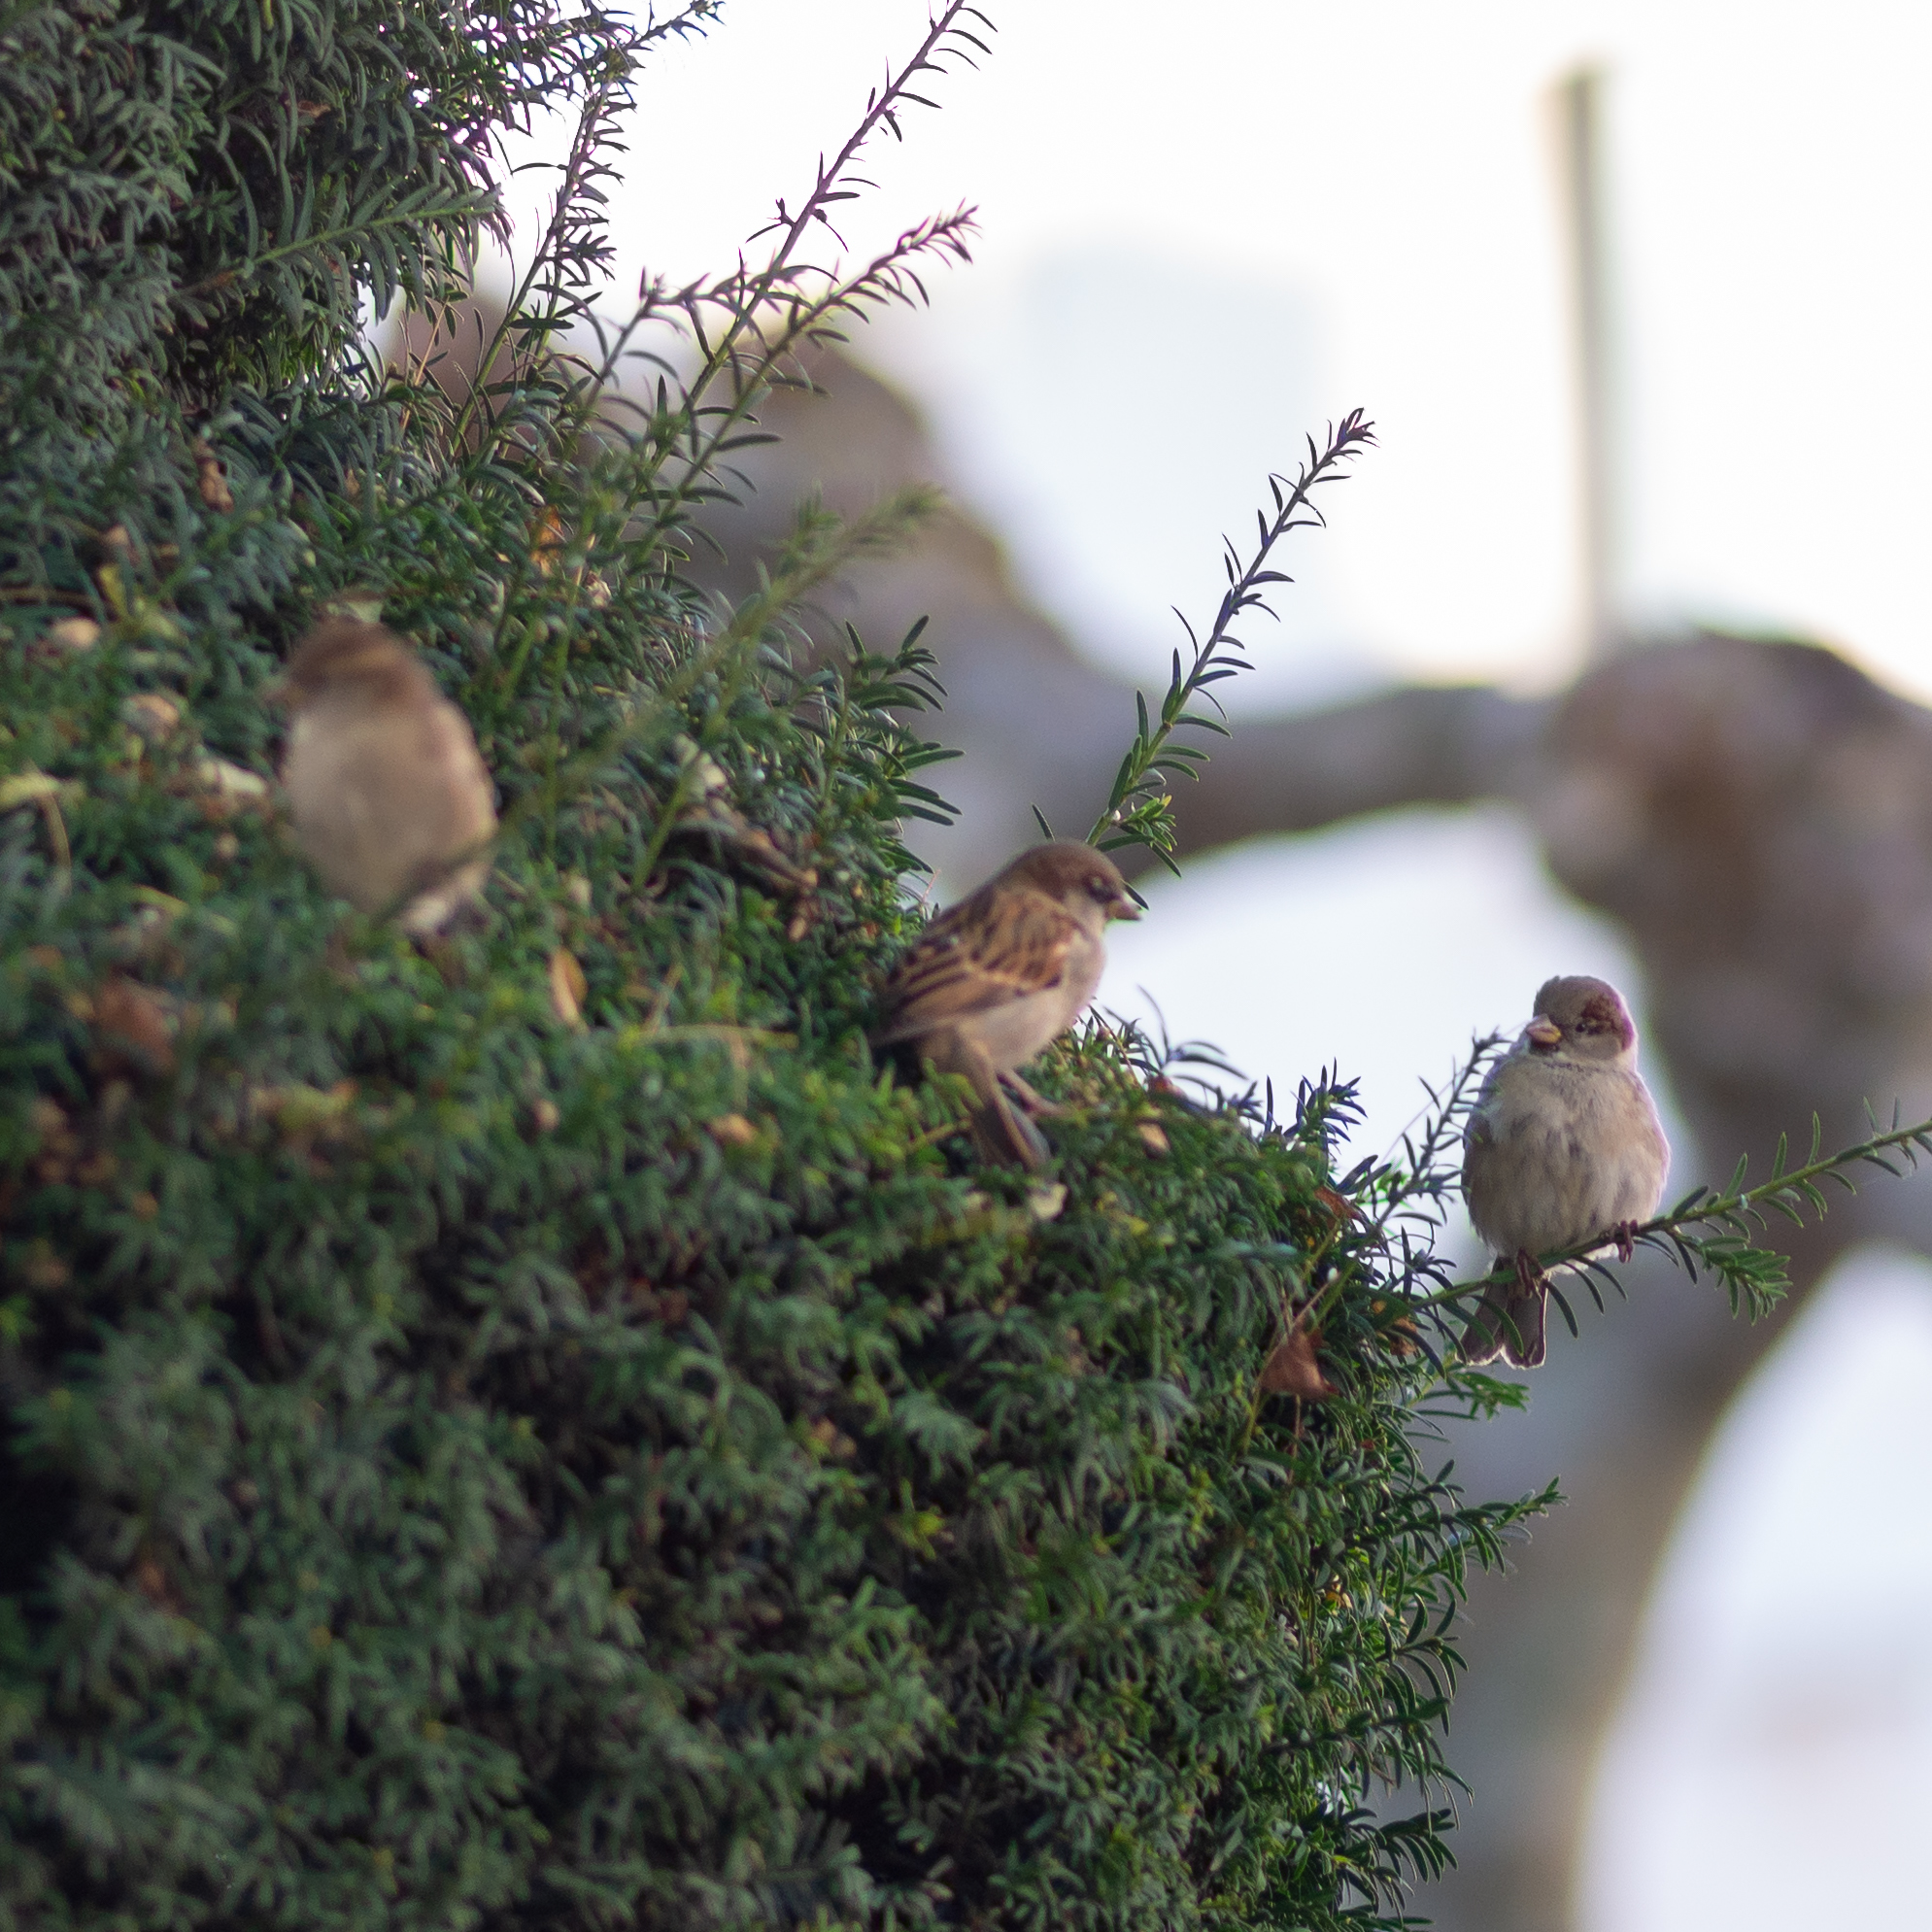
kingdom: Animalia
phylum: Chordata
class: Aves
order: Passeriformes
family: Passeridae
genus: Passer
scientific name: Passer domesticus
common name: House sparrow
